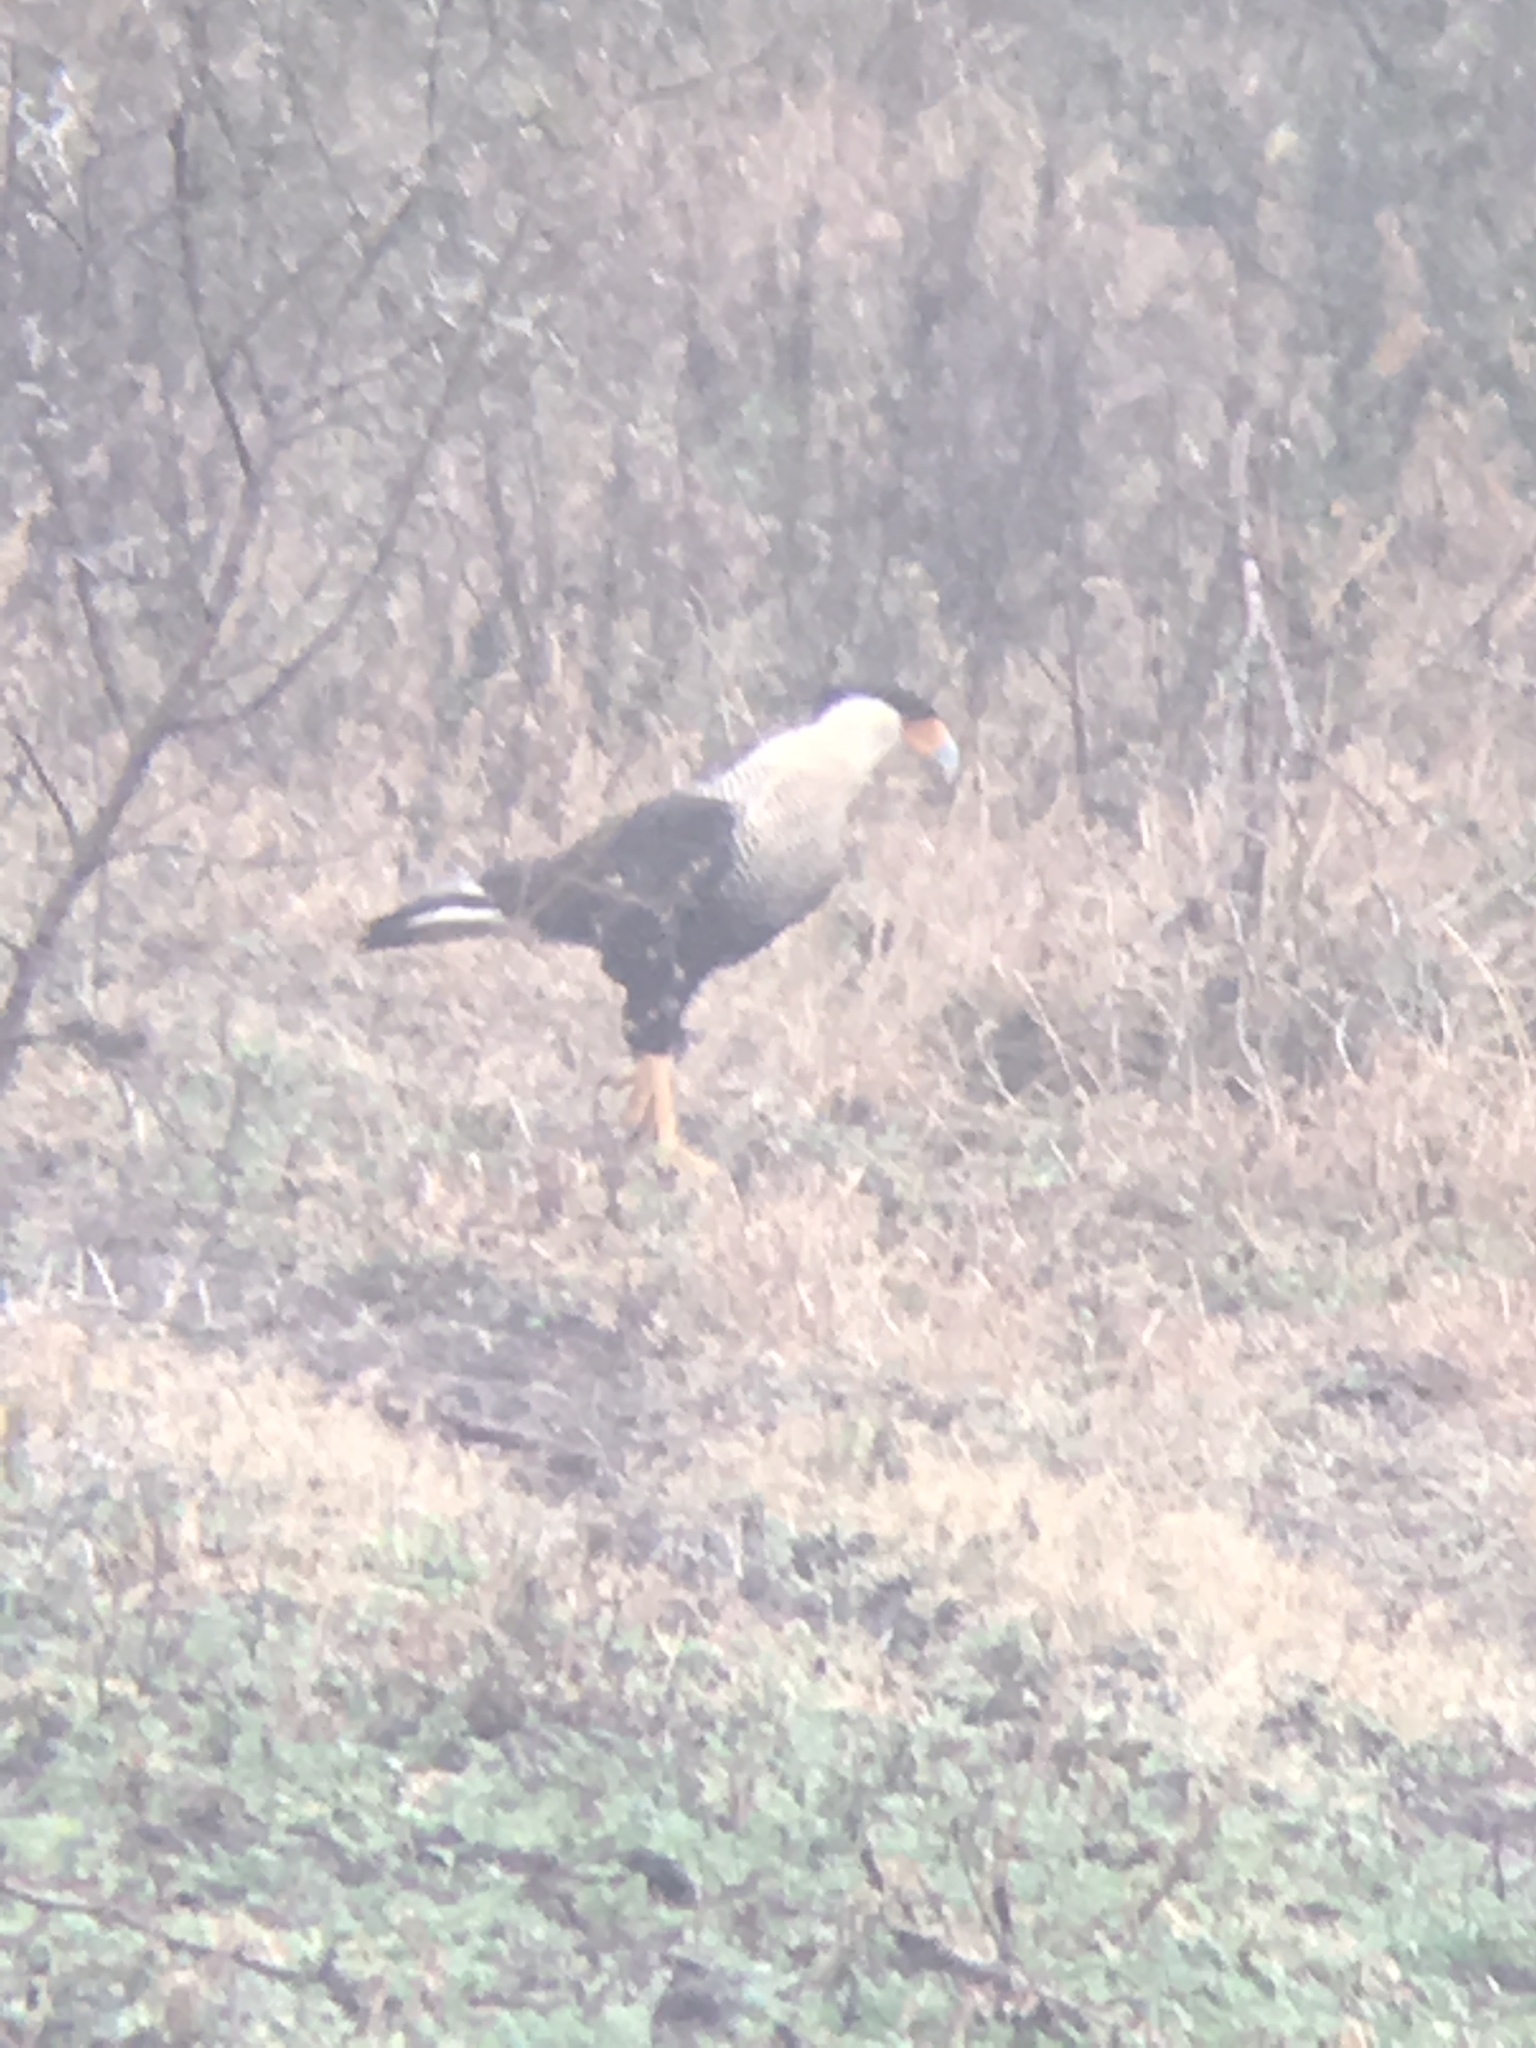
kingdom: Animalia
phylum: Chordata
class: Aves
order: Falconiformes
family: Falconidae
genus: Caracara
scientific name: Caracara plancus
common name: Southern caracara
